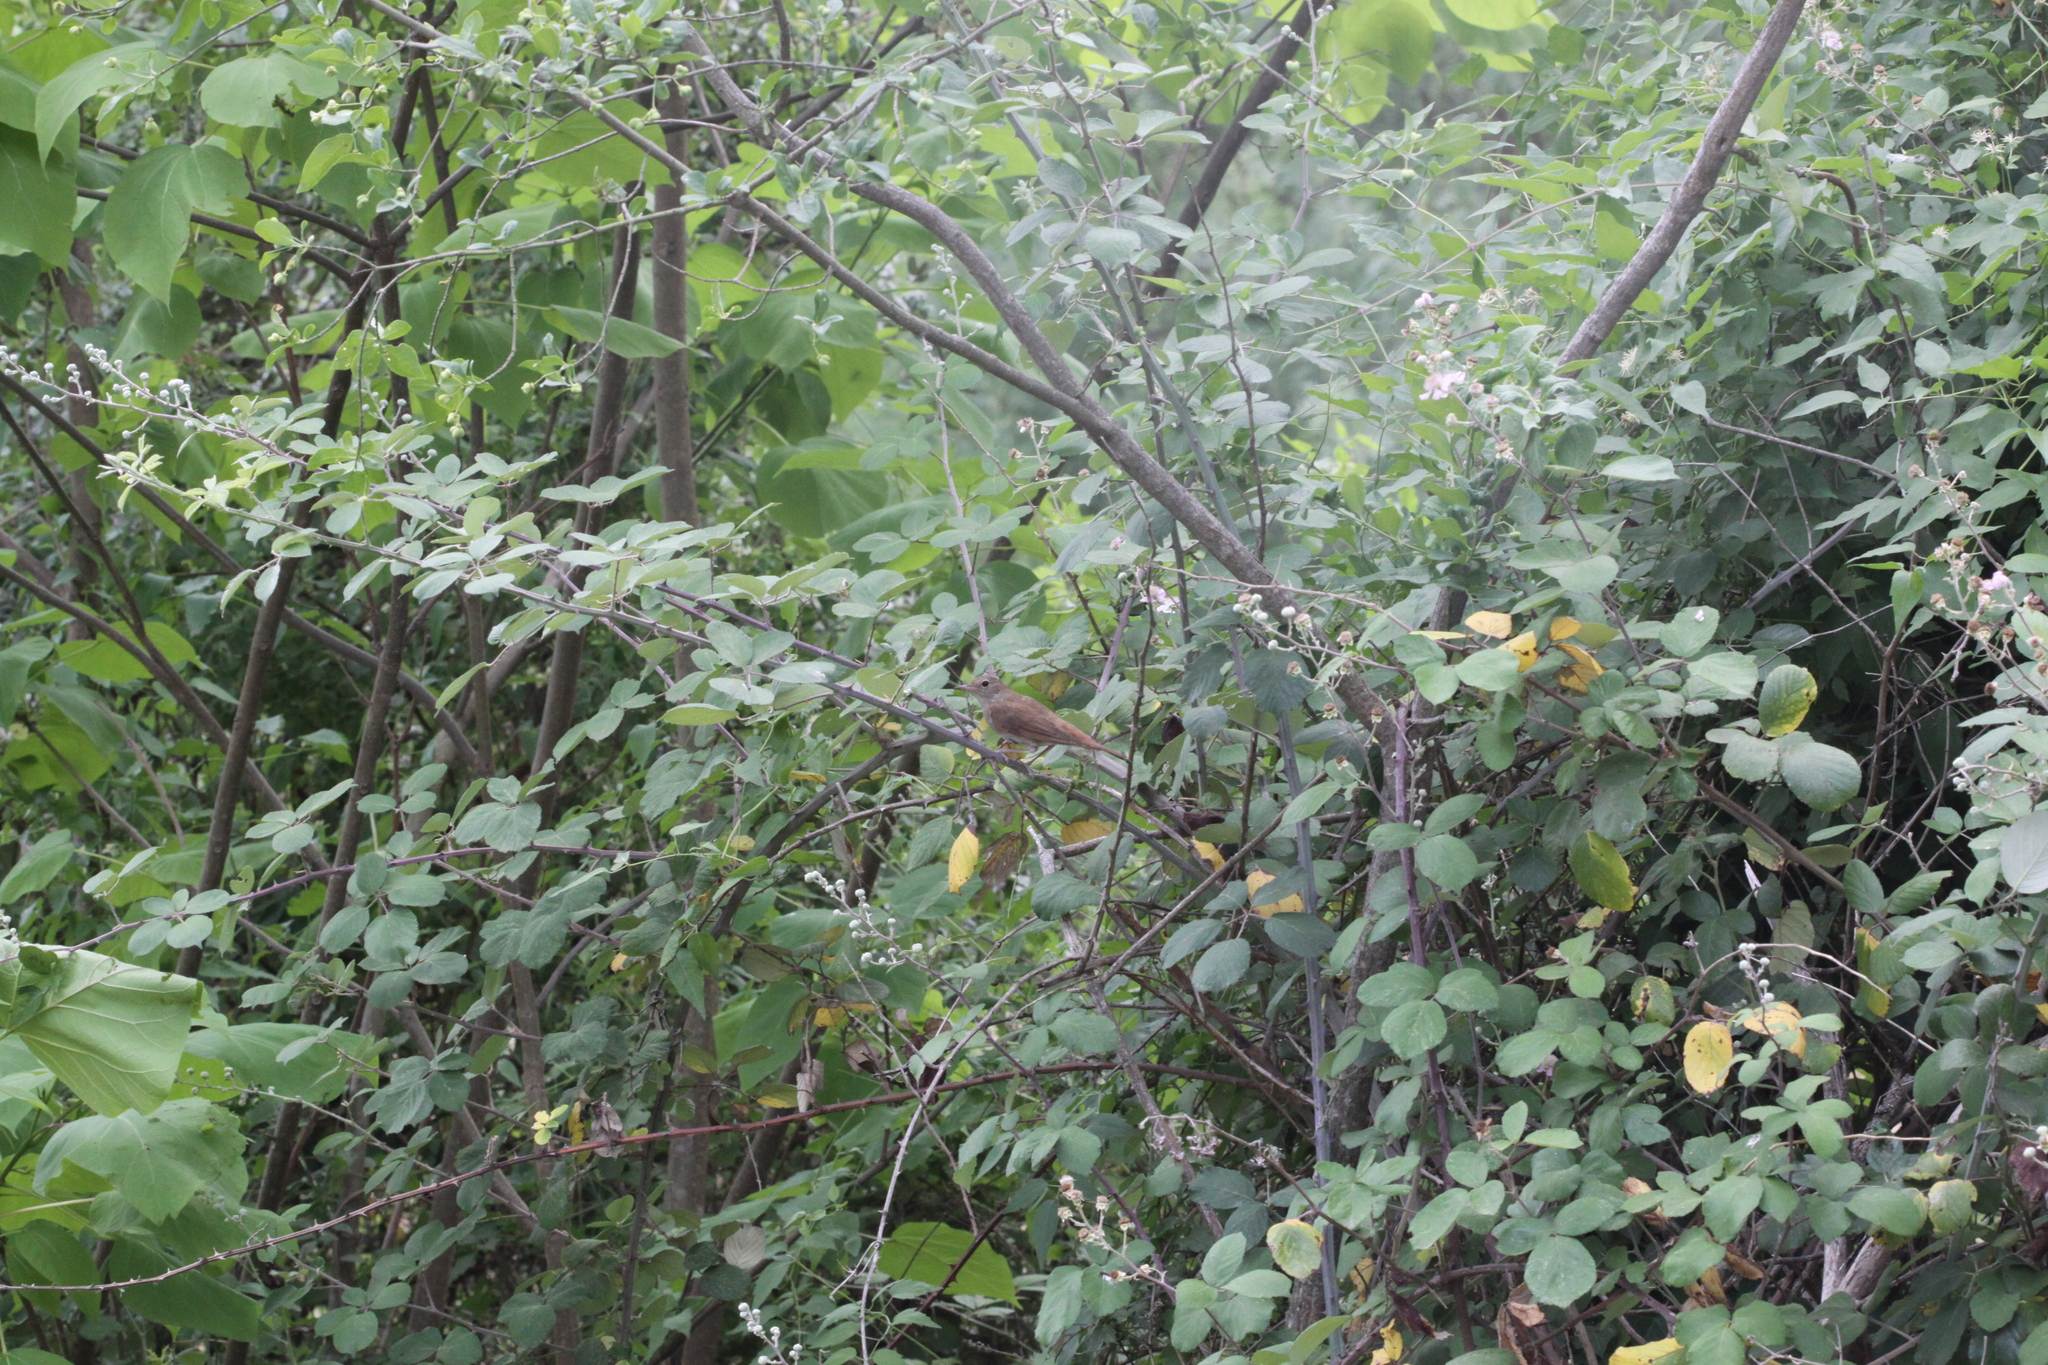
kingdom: Animalia
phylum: Chordata
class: Aves
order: Passeriformes
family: Muscicapidae
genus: Luscinia
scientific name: Luscinia megarhynchos
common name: Common nightingale
